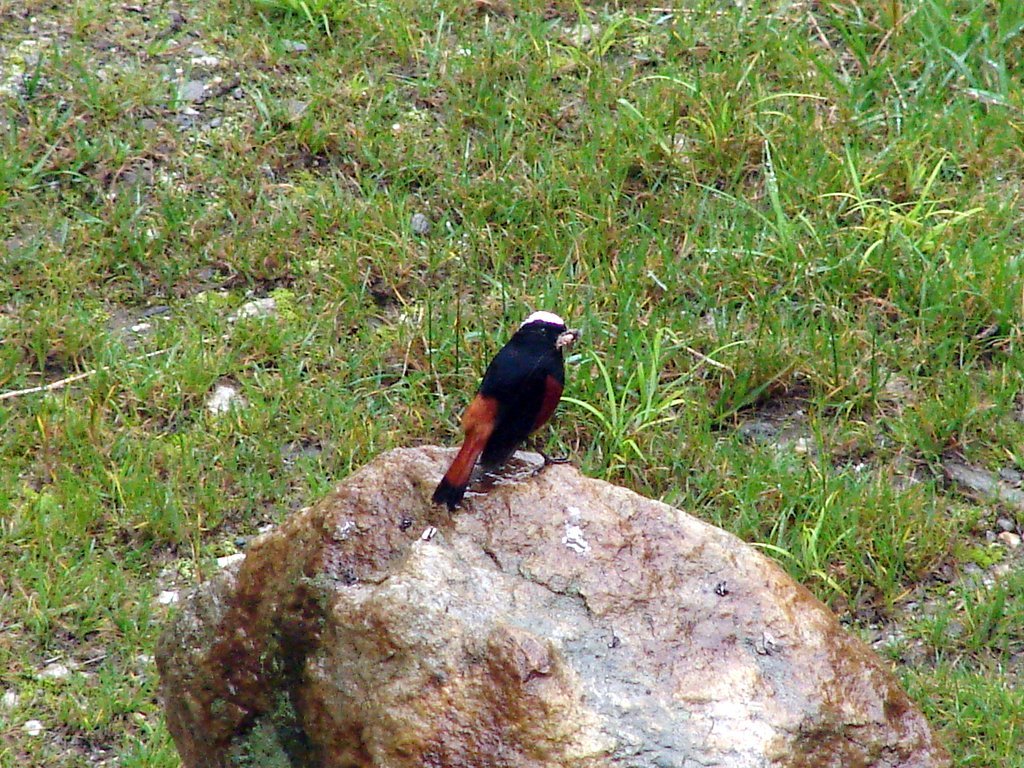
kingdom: Animalia
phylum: Chordata
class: Aves
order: Passeriformes
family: Muscicapidae
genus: Chaimarrornis
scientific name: Chaimarrornis leucocephalus
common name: White-capped redstart
